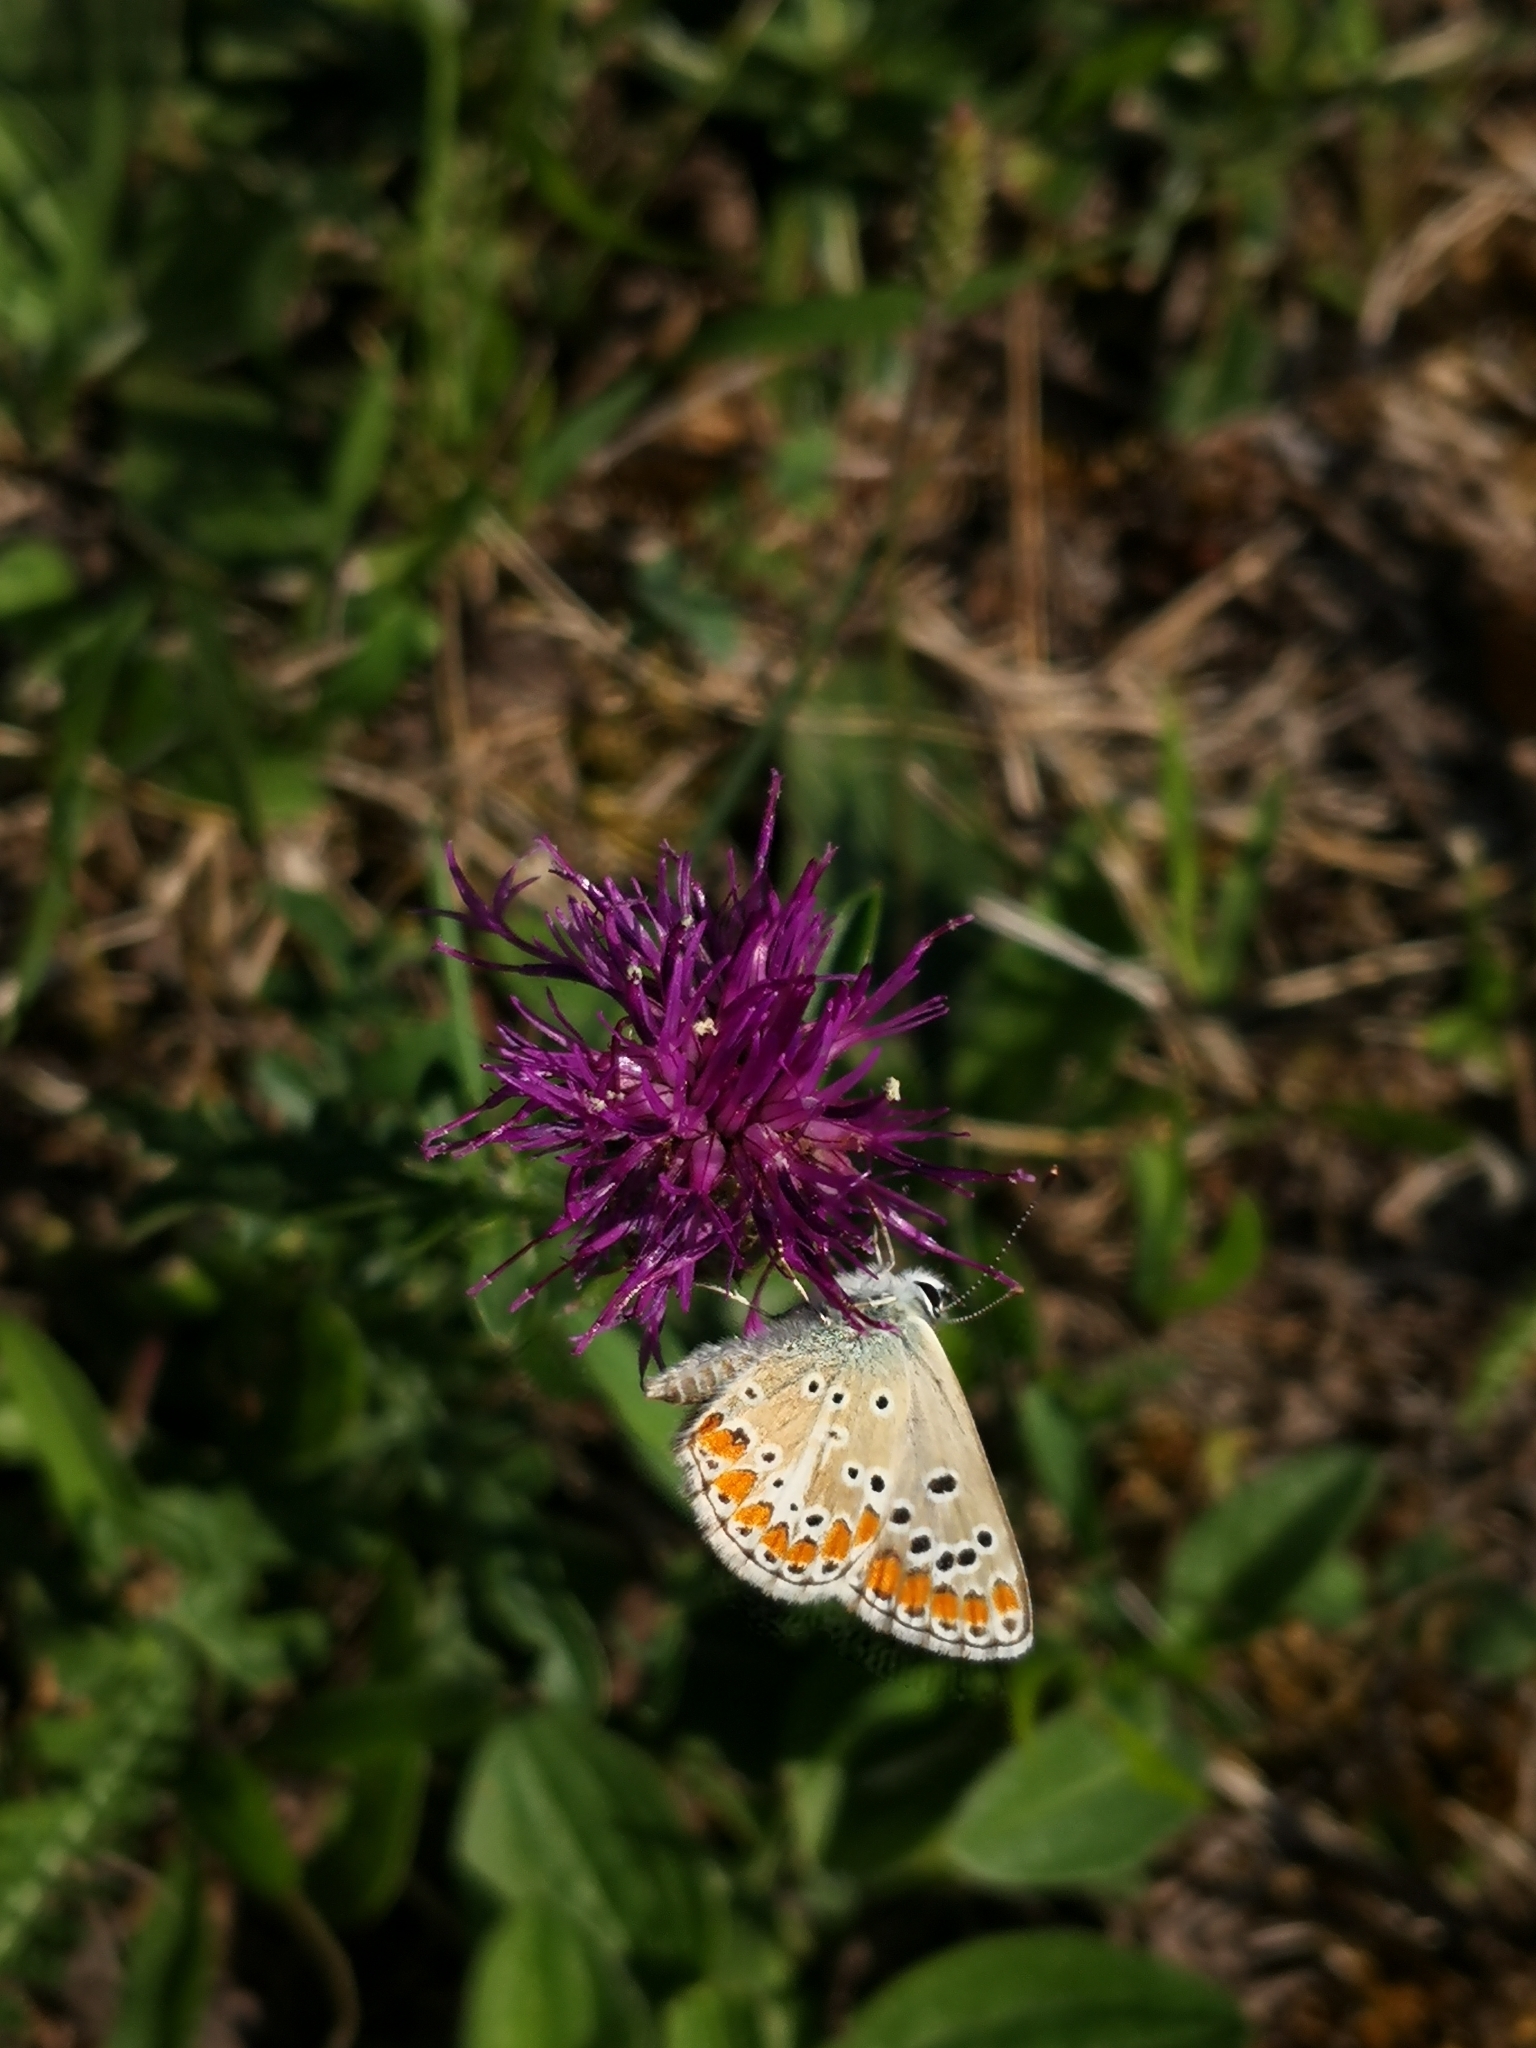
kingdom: Animalia
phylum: Arthropoda
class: Insecta
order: Lepidoptera
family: Lycaenidae
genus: Aricia
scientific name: Aricia agestis
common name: Brown argus
